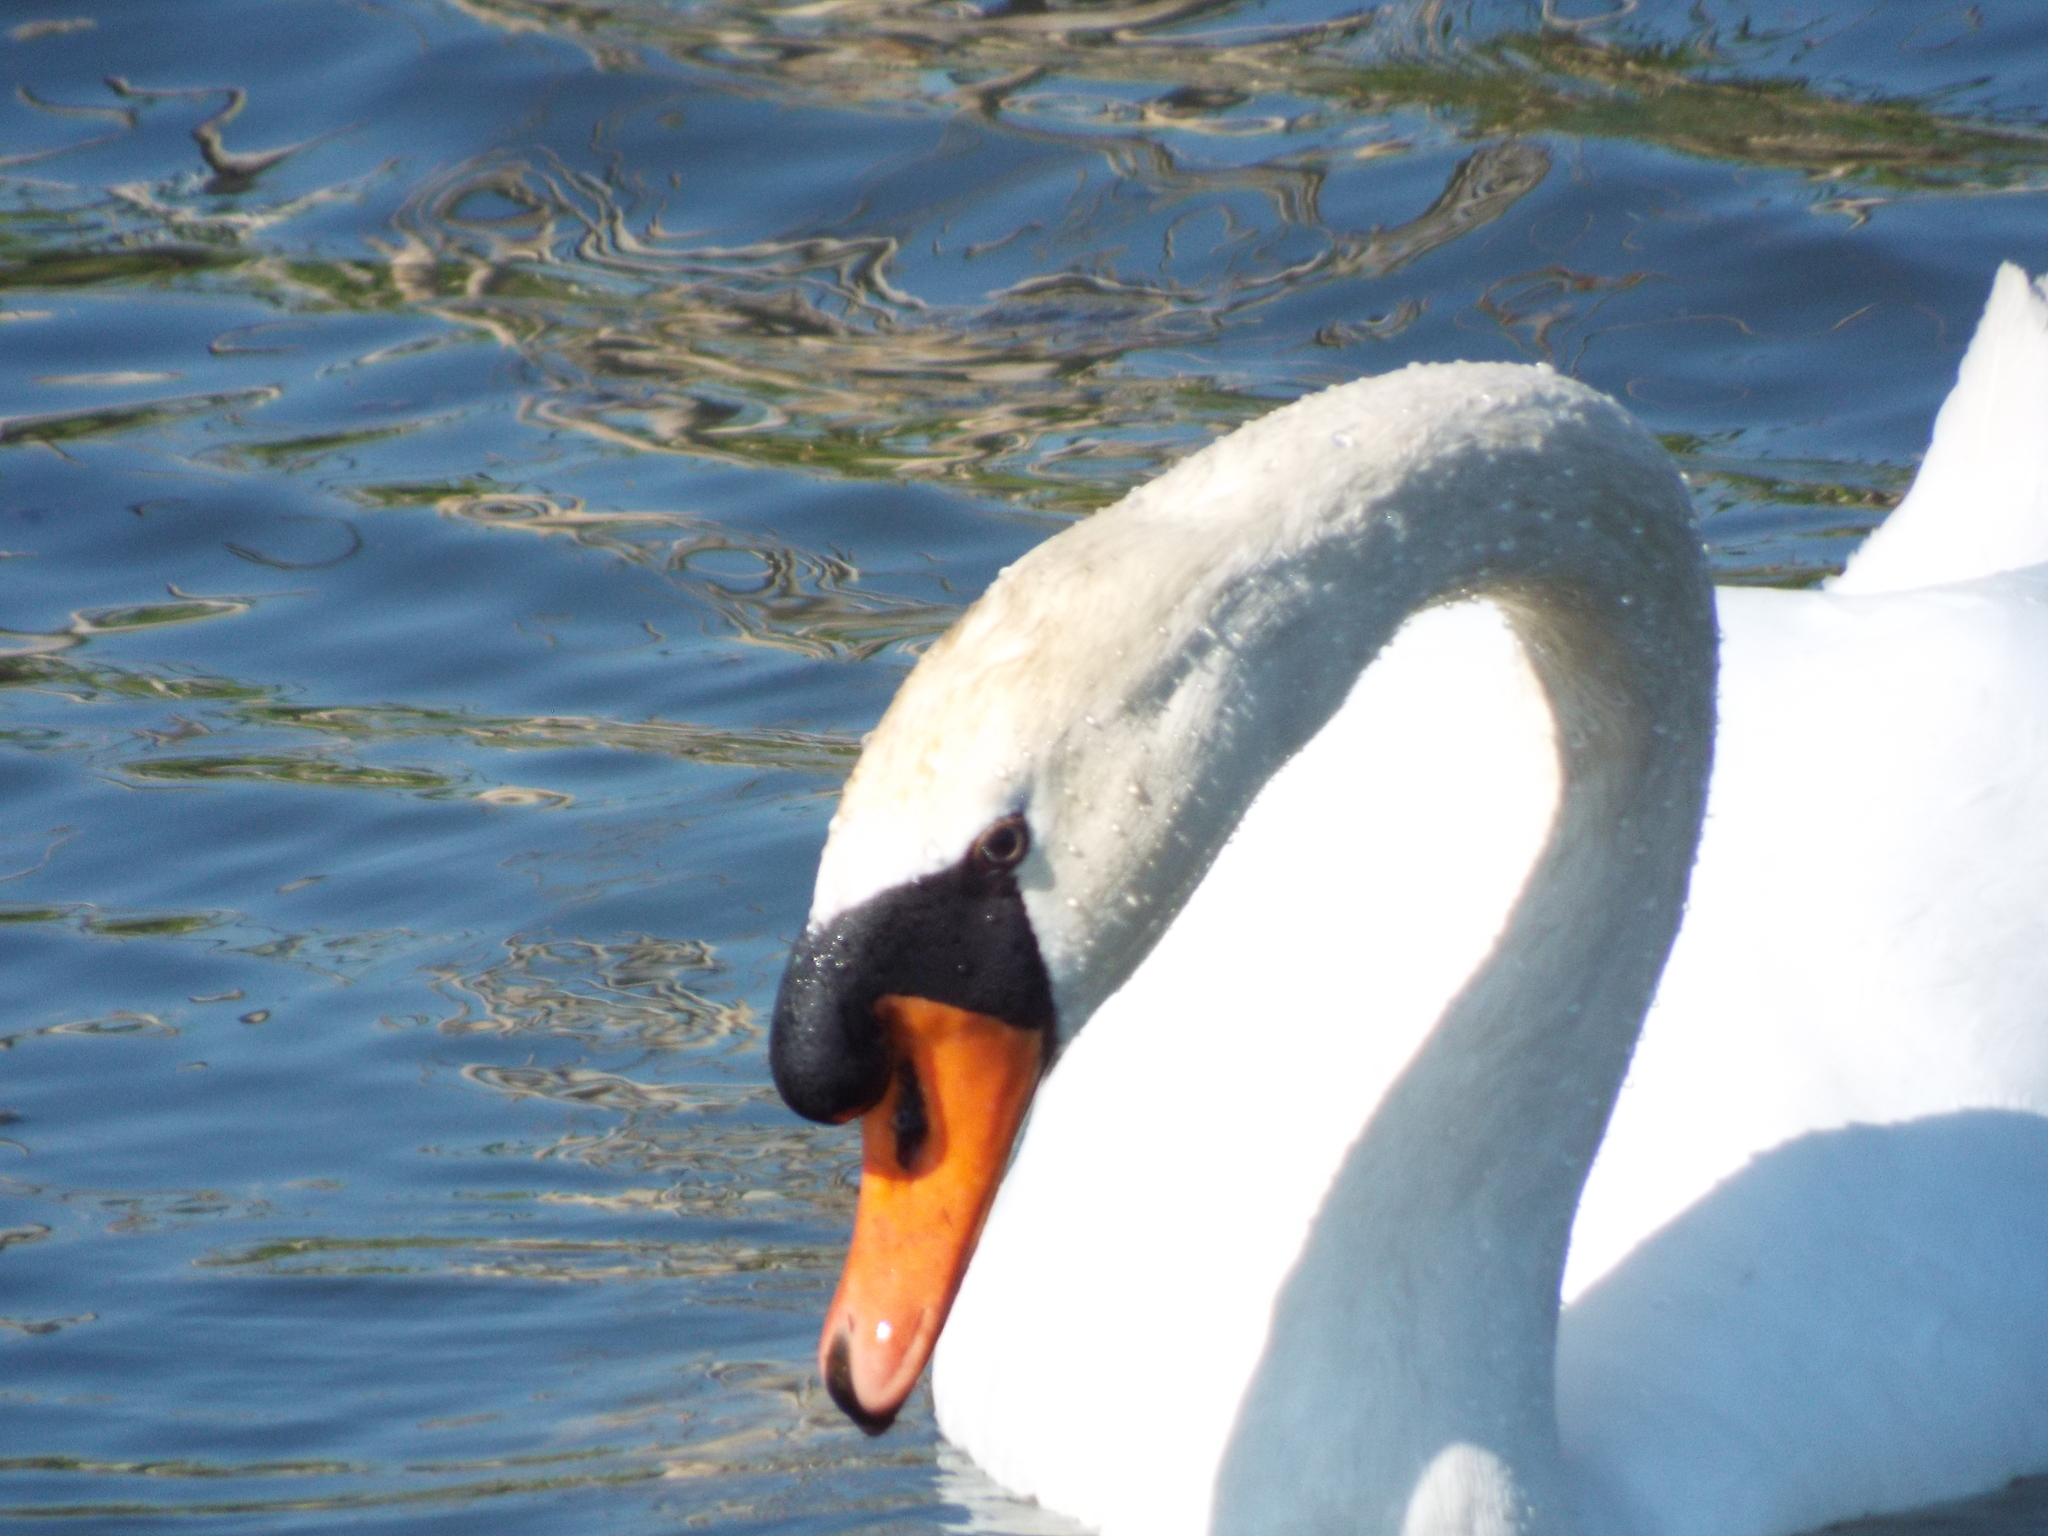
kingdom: Animalia
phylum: Chordata
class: Aves
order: Anseriformes
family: Anatidae
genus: Cygnus
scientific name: Cygnus olor
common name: Mute swan
